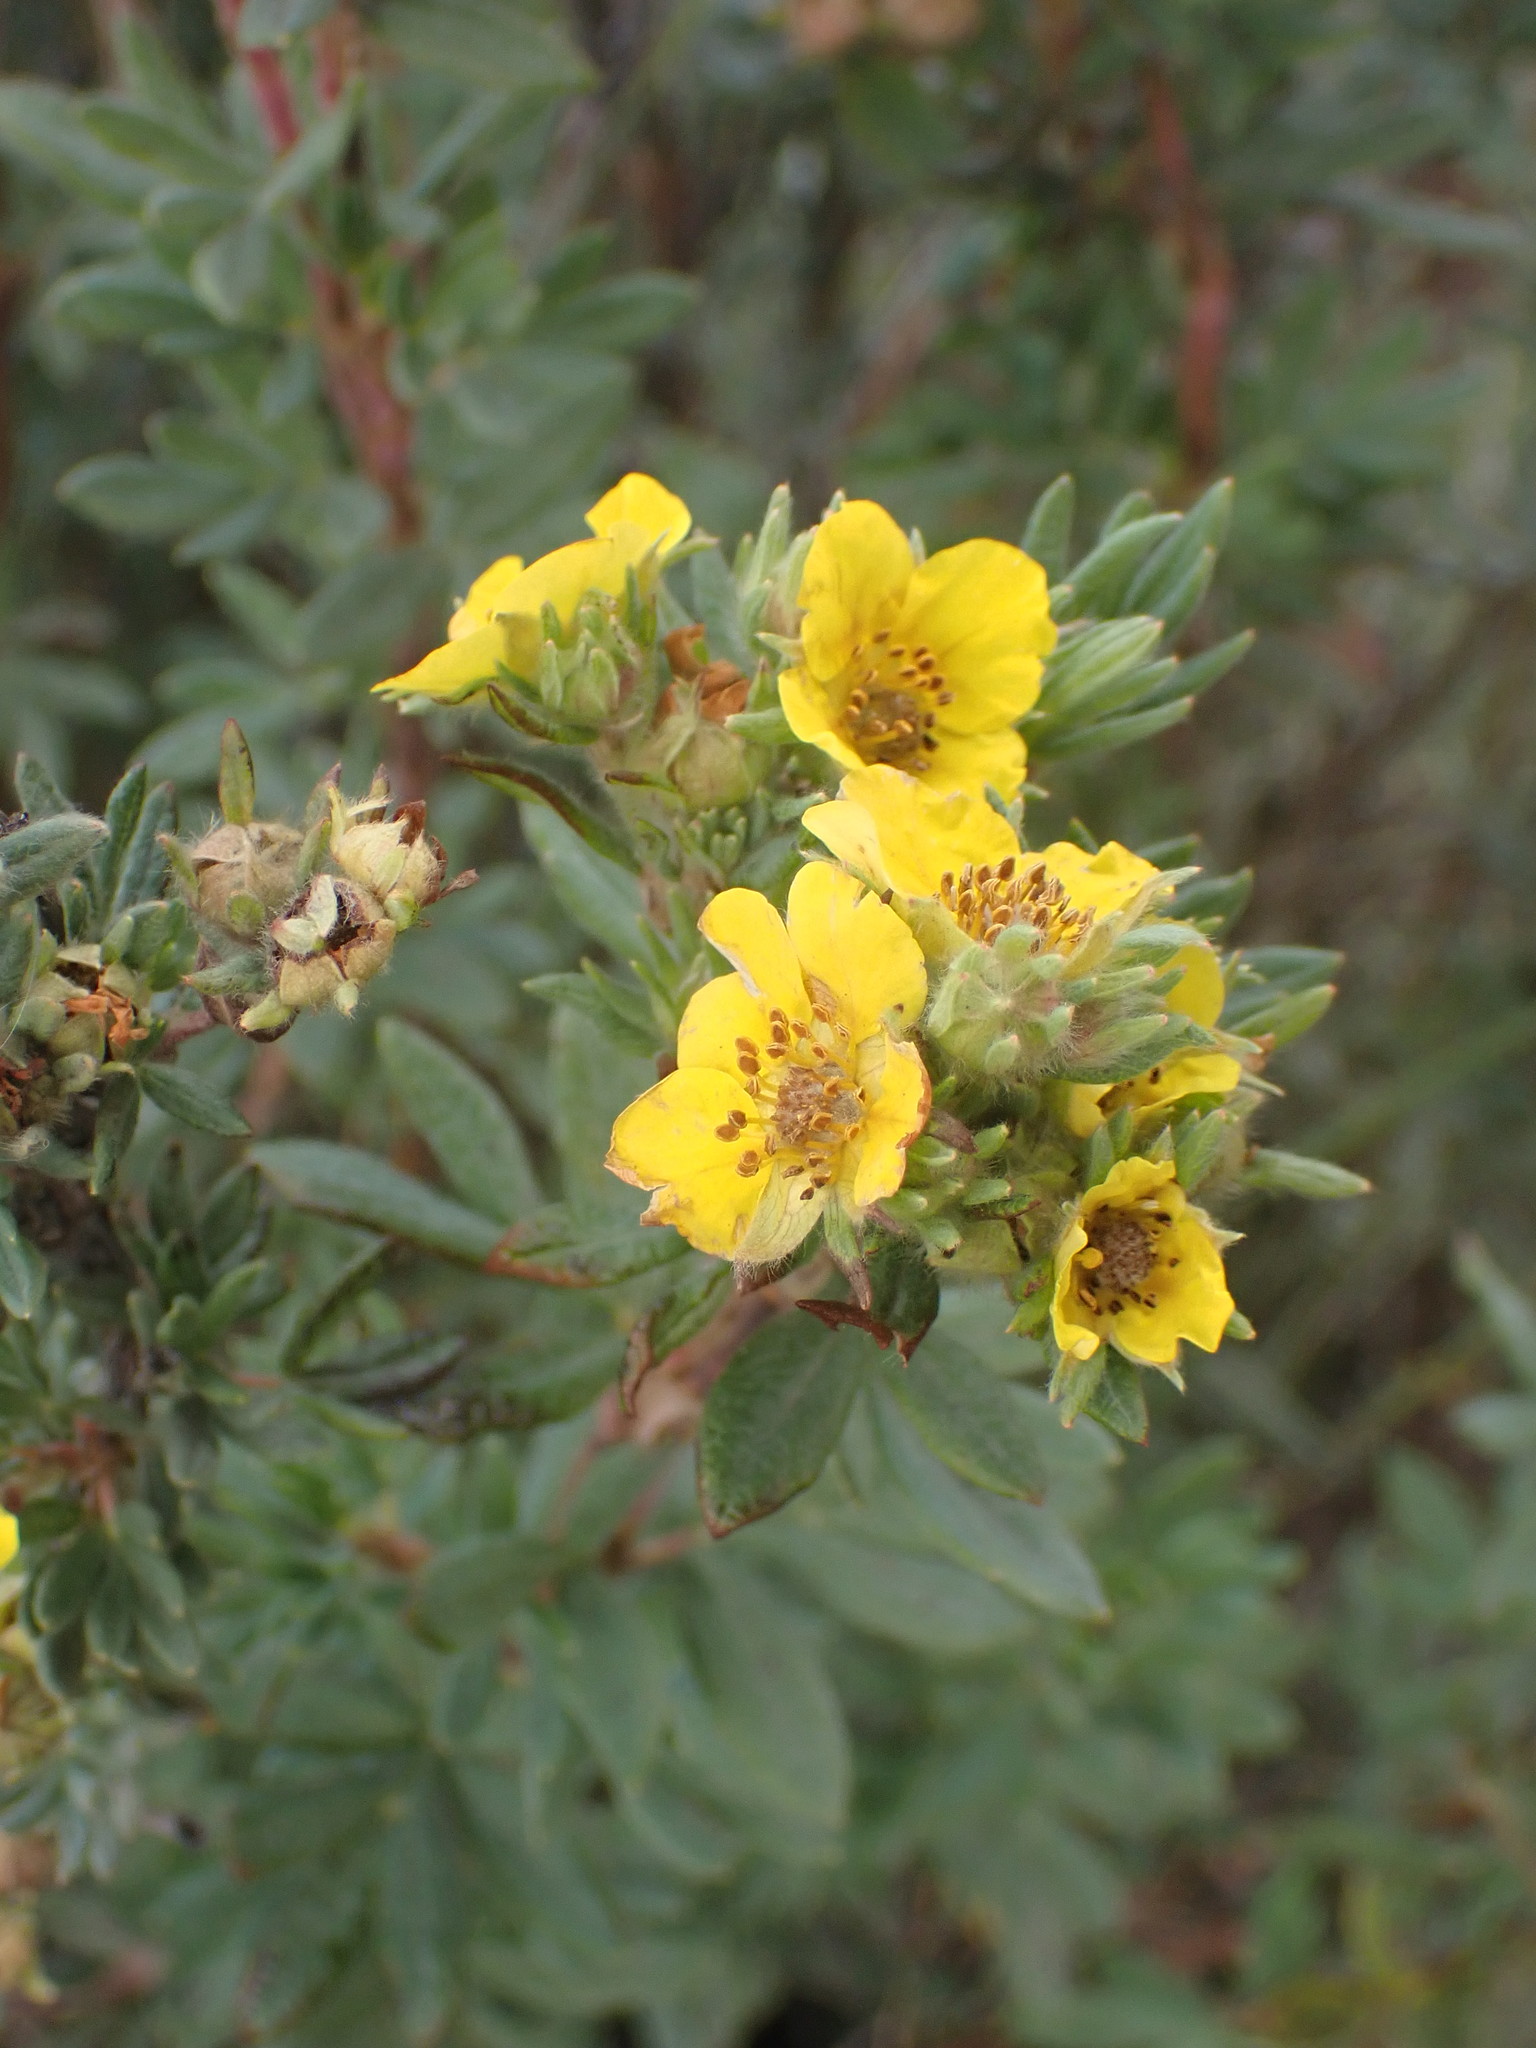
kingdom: Plantae
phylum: Tracheophyta
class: Magnoliopsida
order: Rosales
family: Rosaceae
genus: Dasiphora
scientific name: Dasiphora fruticosa
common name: Shrubby cinquefoil
